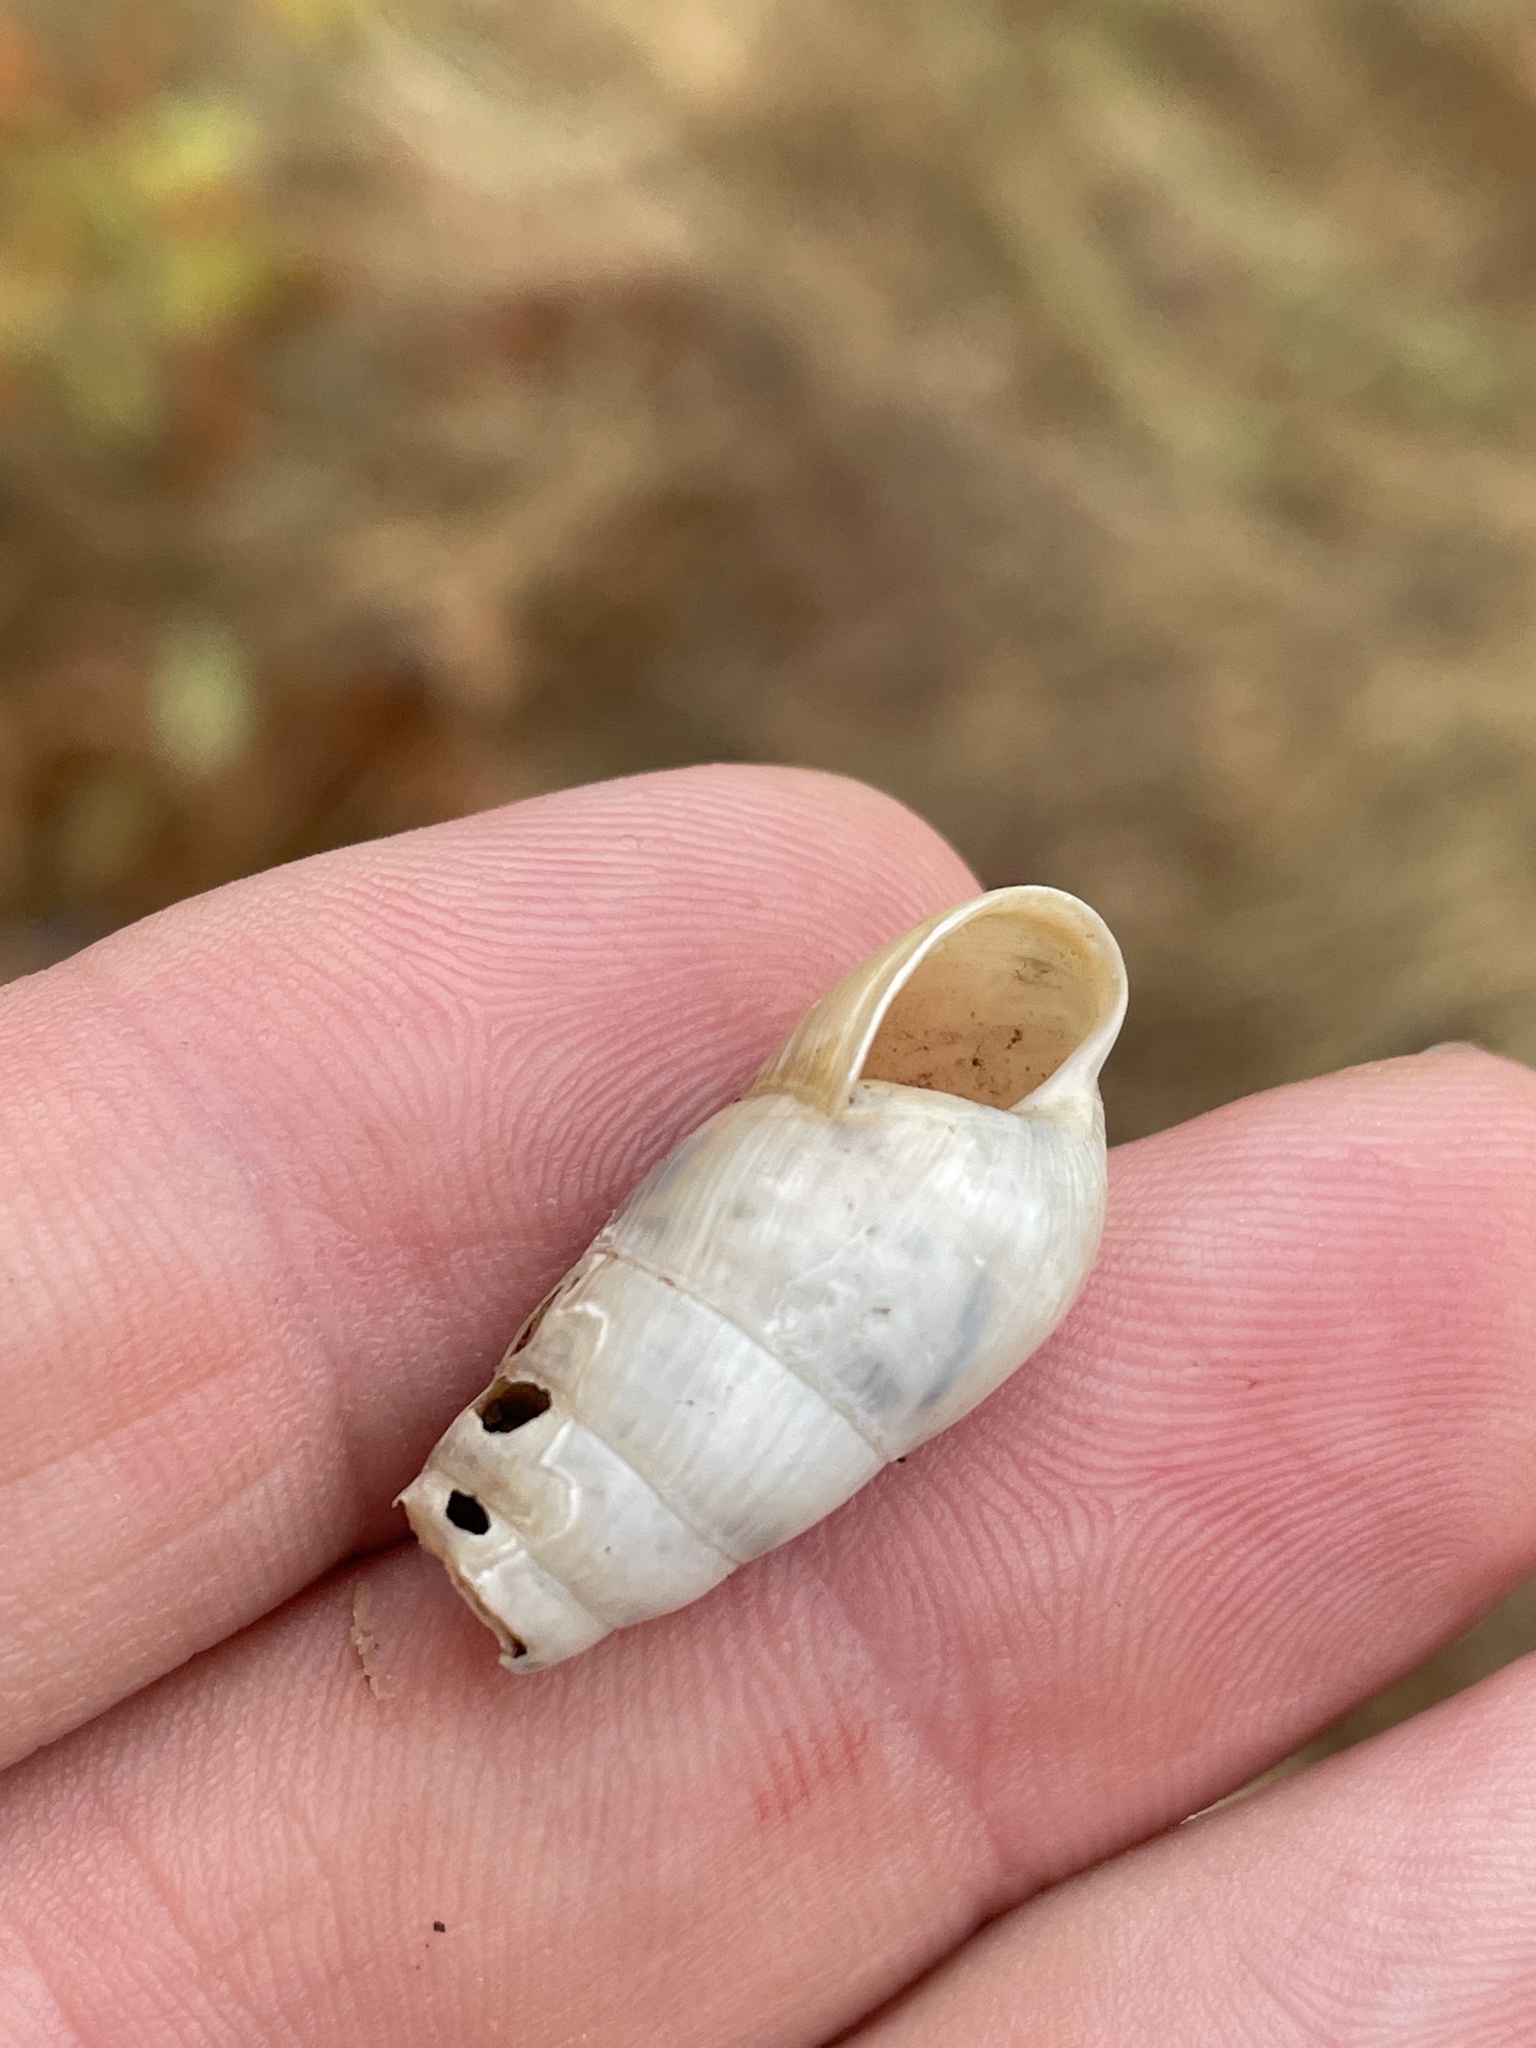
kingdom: Animalia
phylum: Mollusca
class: Gastropoda
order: Stylommatophora
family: Achatinidae
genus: Rumina
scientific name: Rumina decollata
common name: Decollate snail
